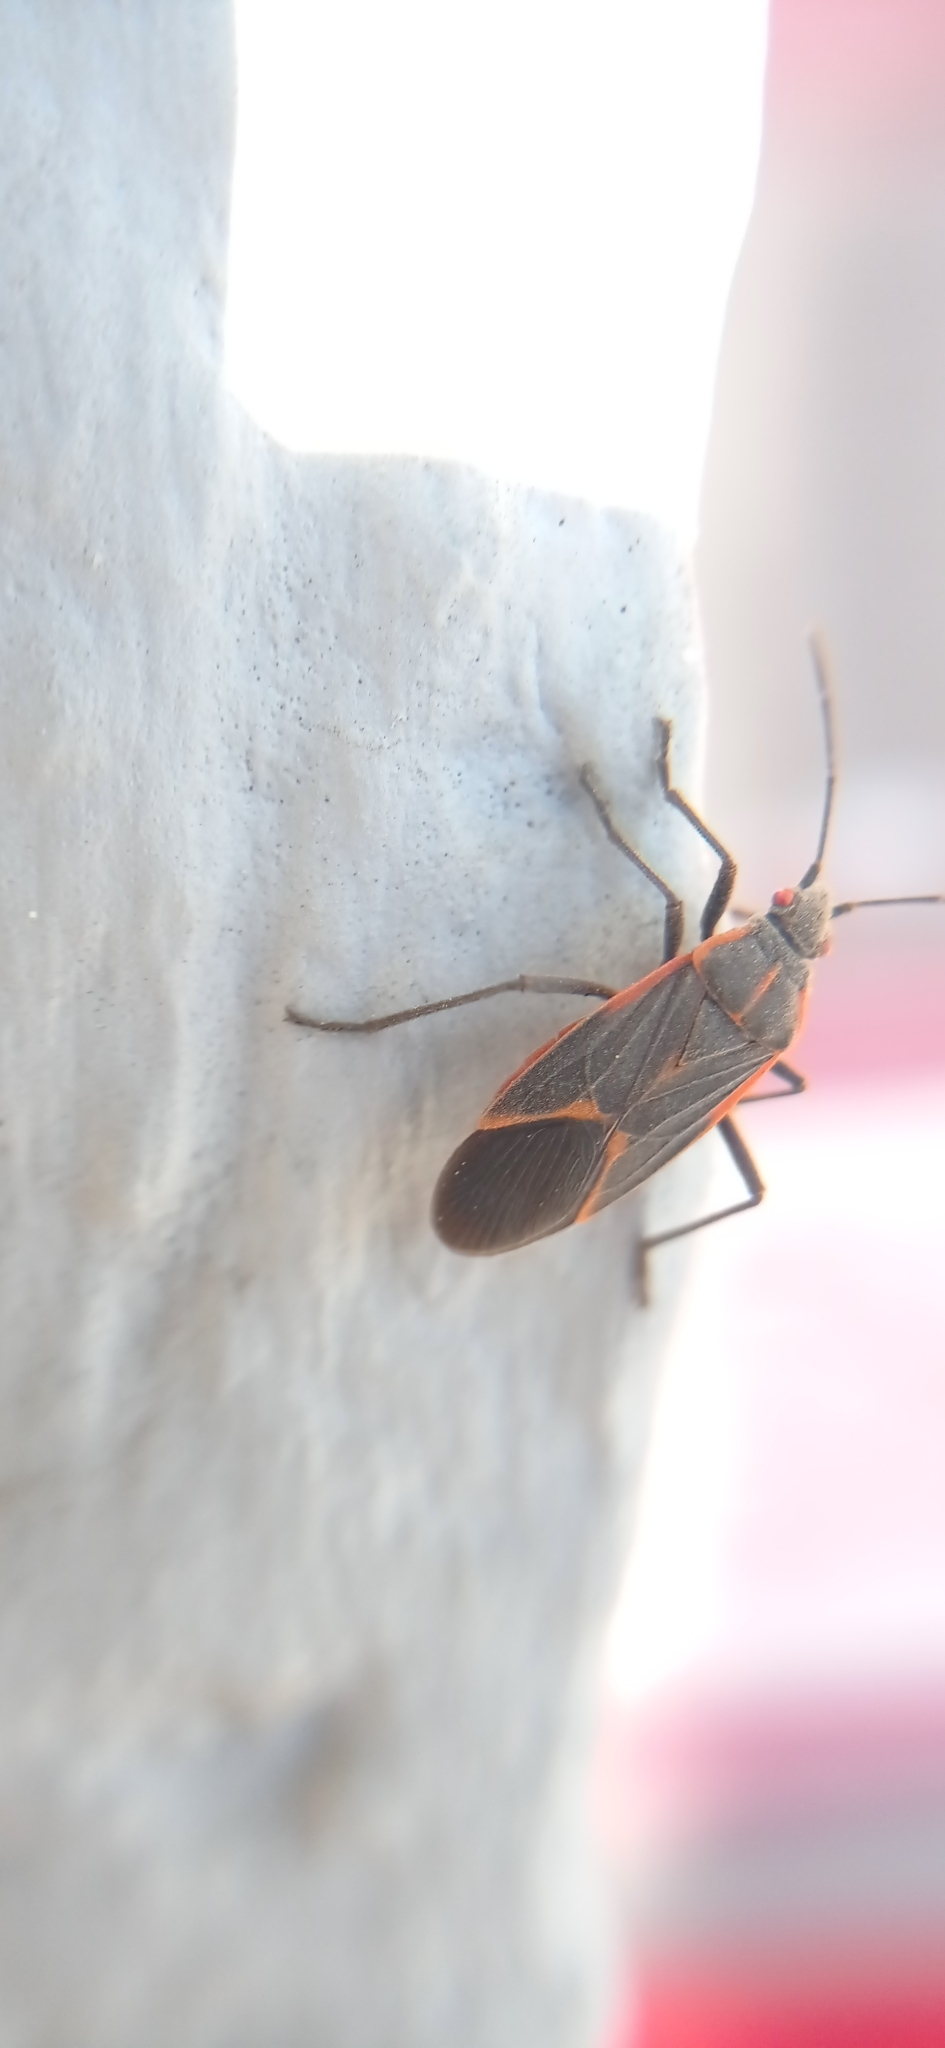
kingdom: Animalia
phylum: Arthropoda
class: Insecta
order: Hemiptera
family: Rhopalidae
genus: Boisea
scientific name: Boisea trivittata
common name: Boxelder bug
